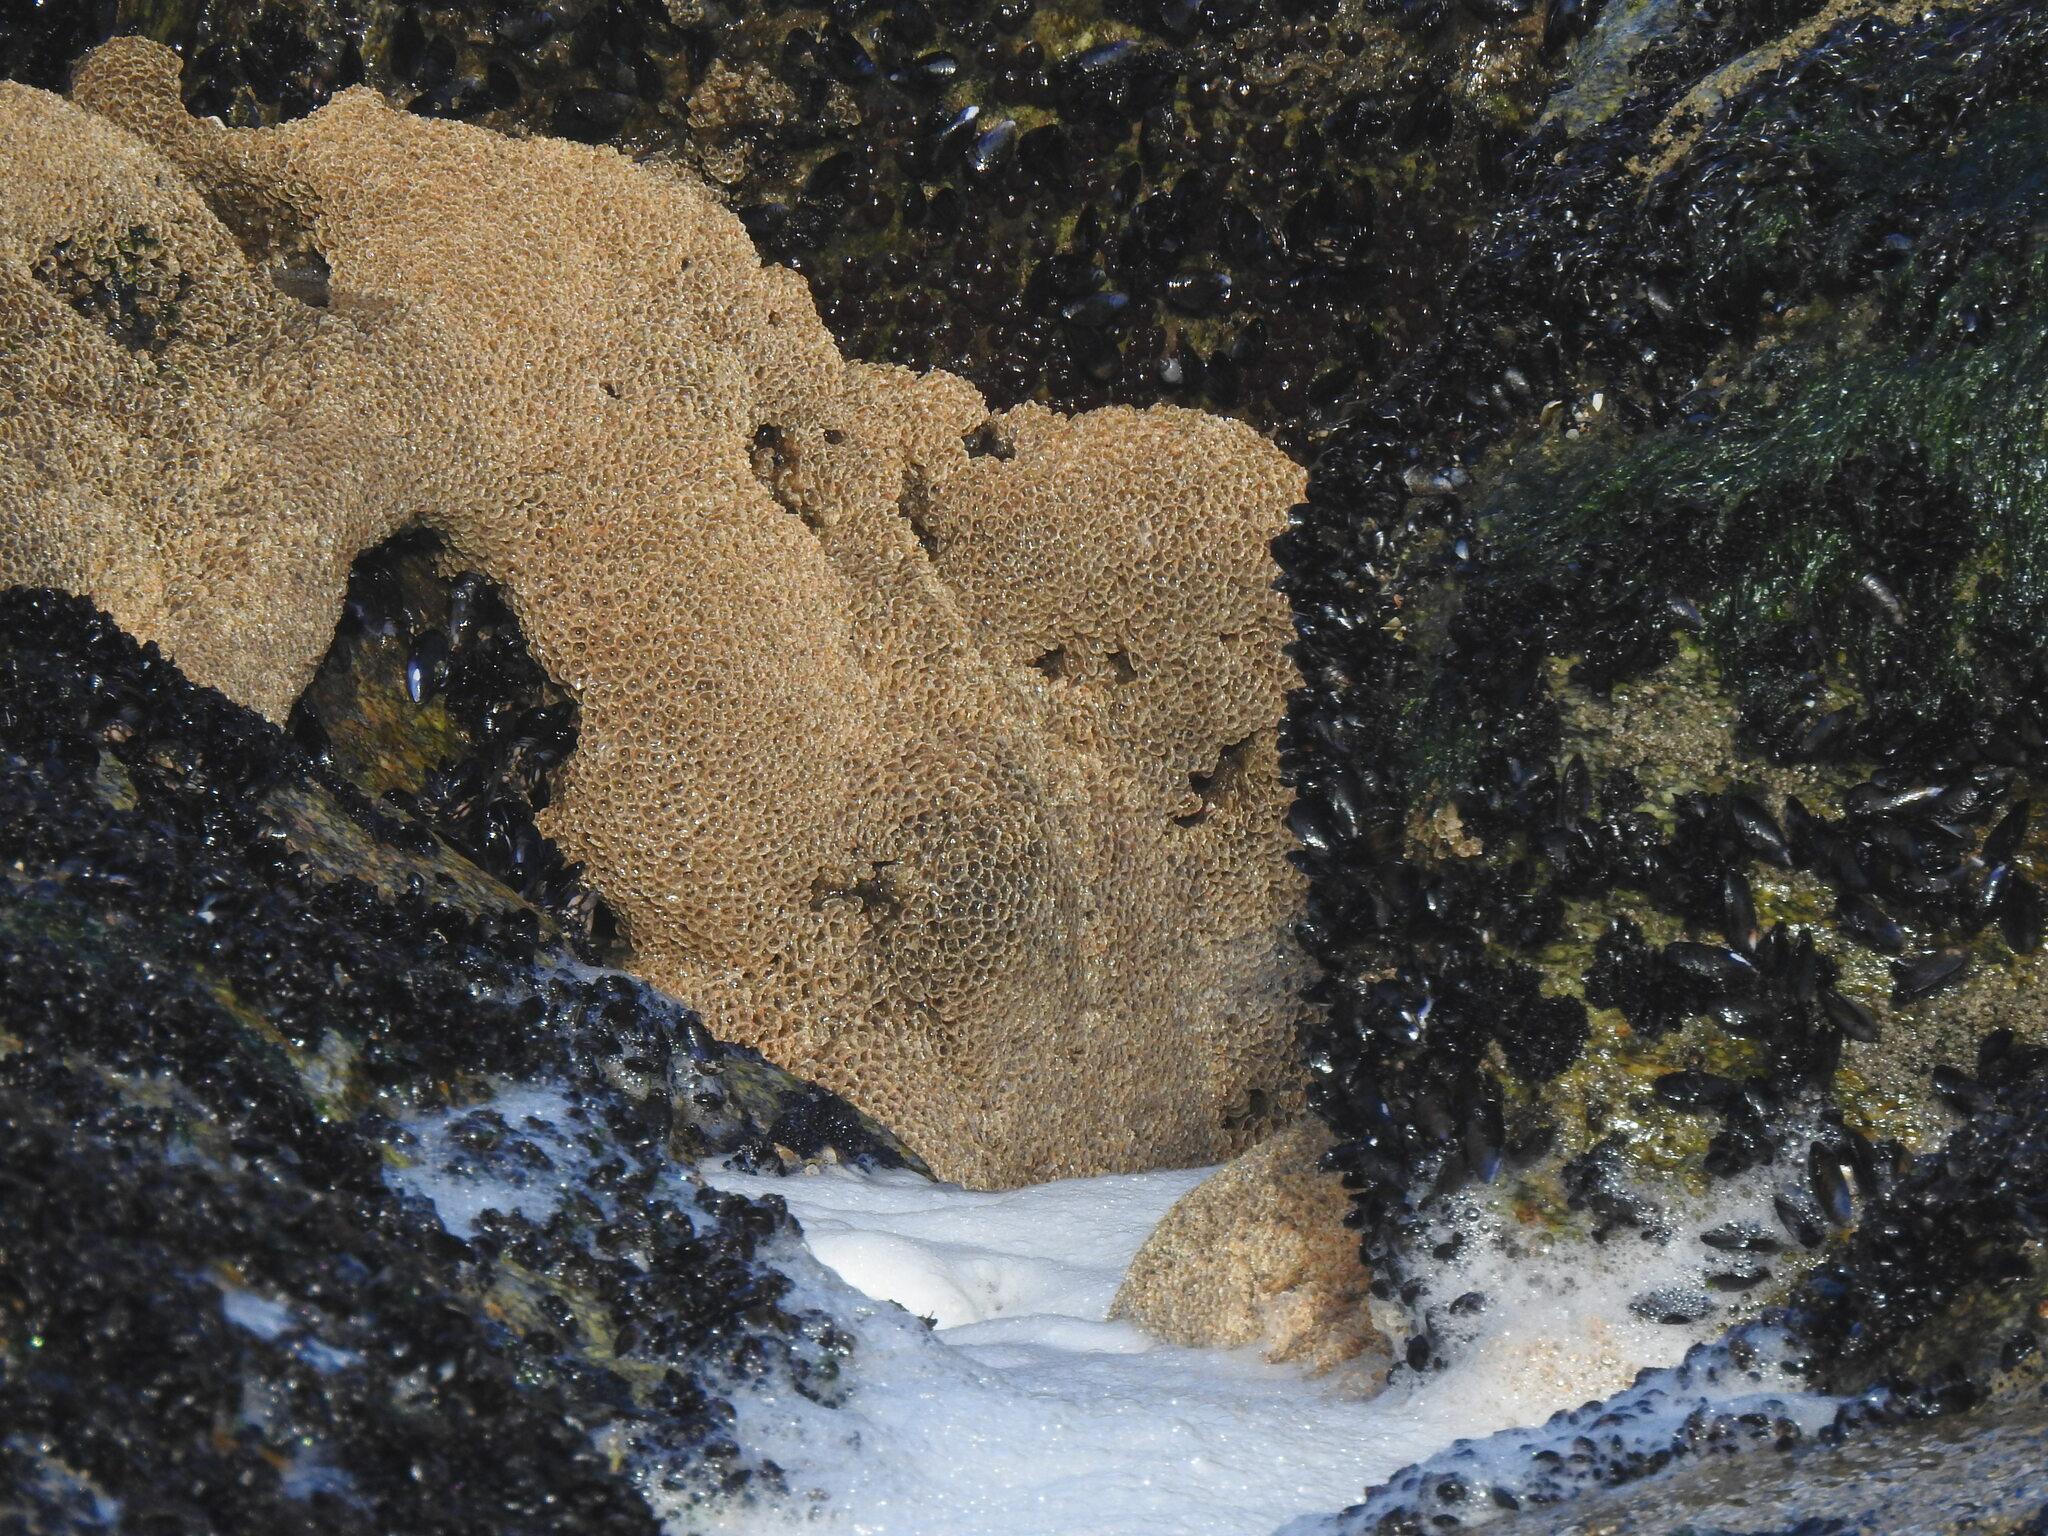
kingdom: Animalia
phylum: Annelida
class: Polychaeta
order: Sabellida
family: Sabellariidae
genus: Sabellaria
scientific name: Sabellaria alveolata
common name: Honeycomb worm
